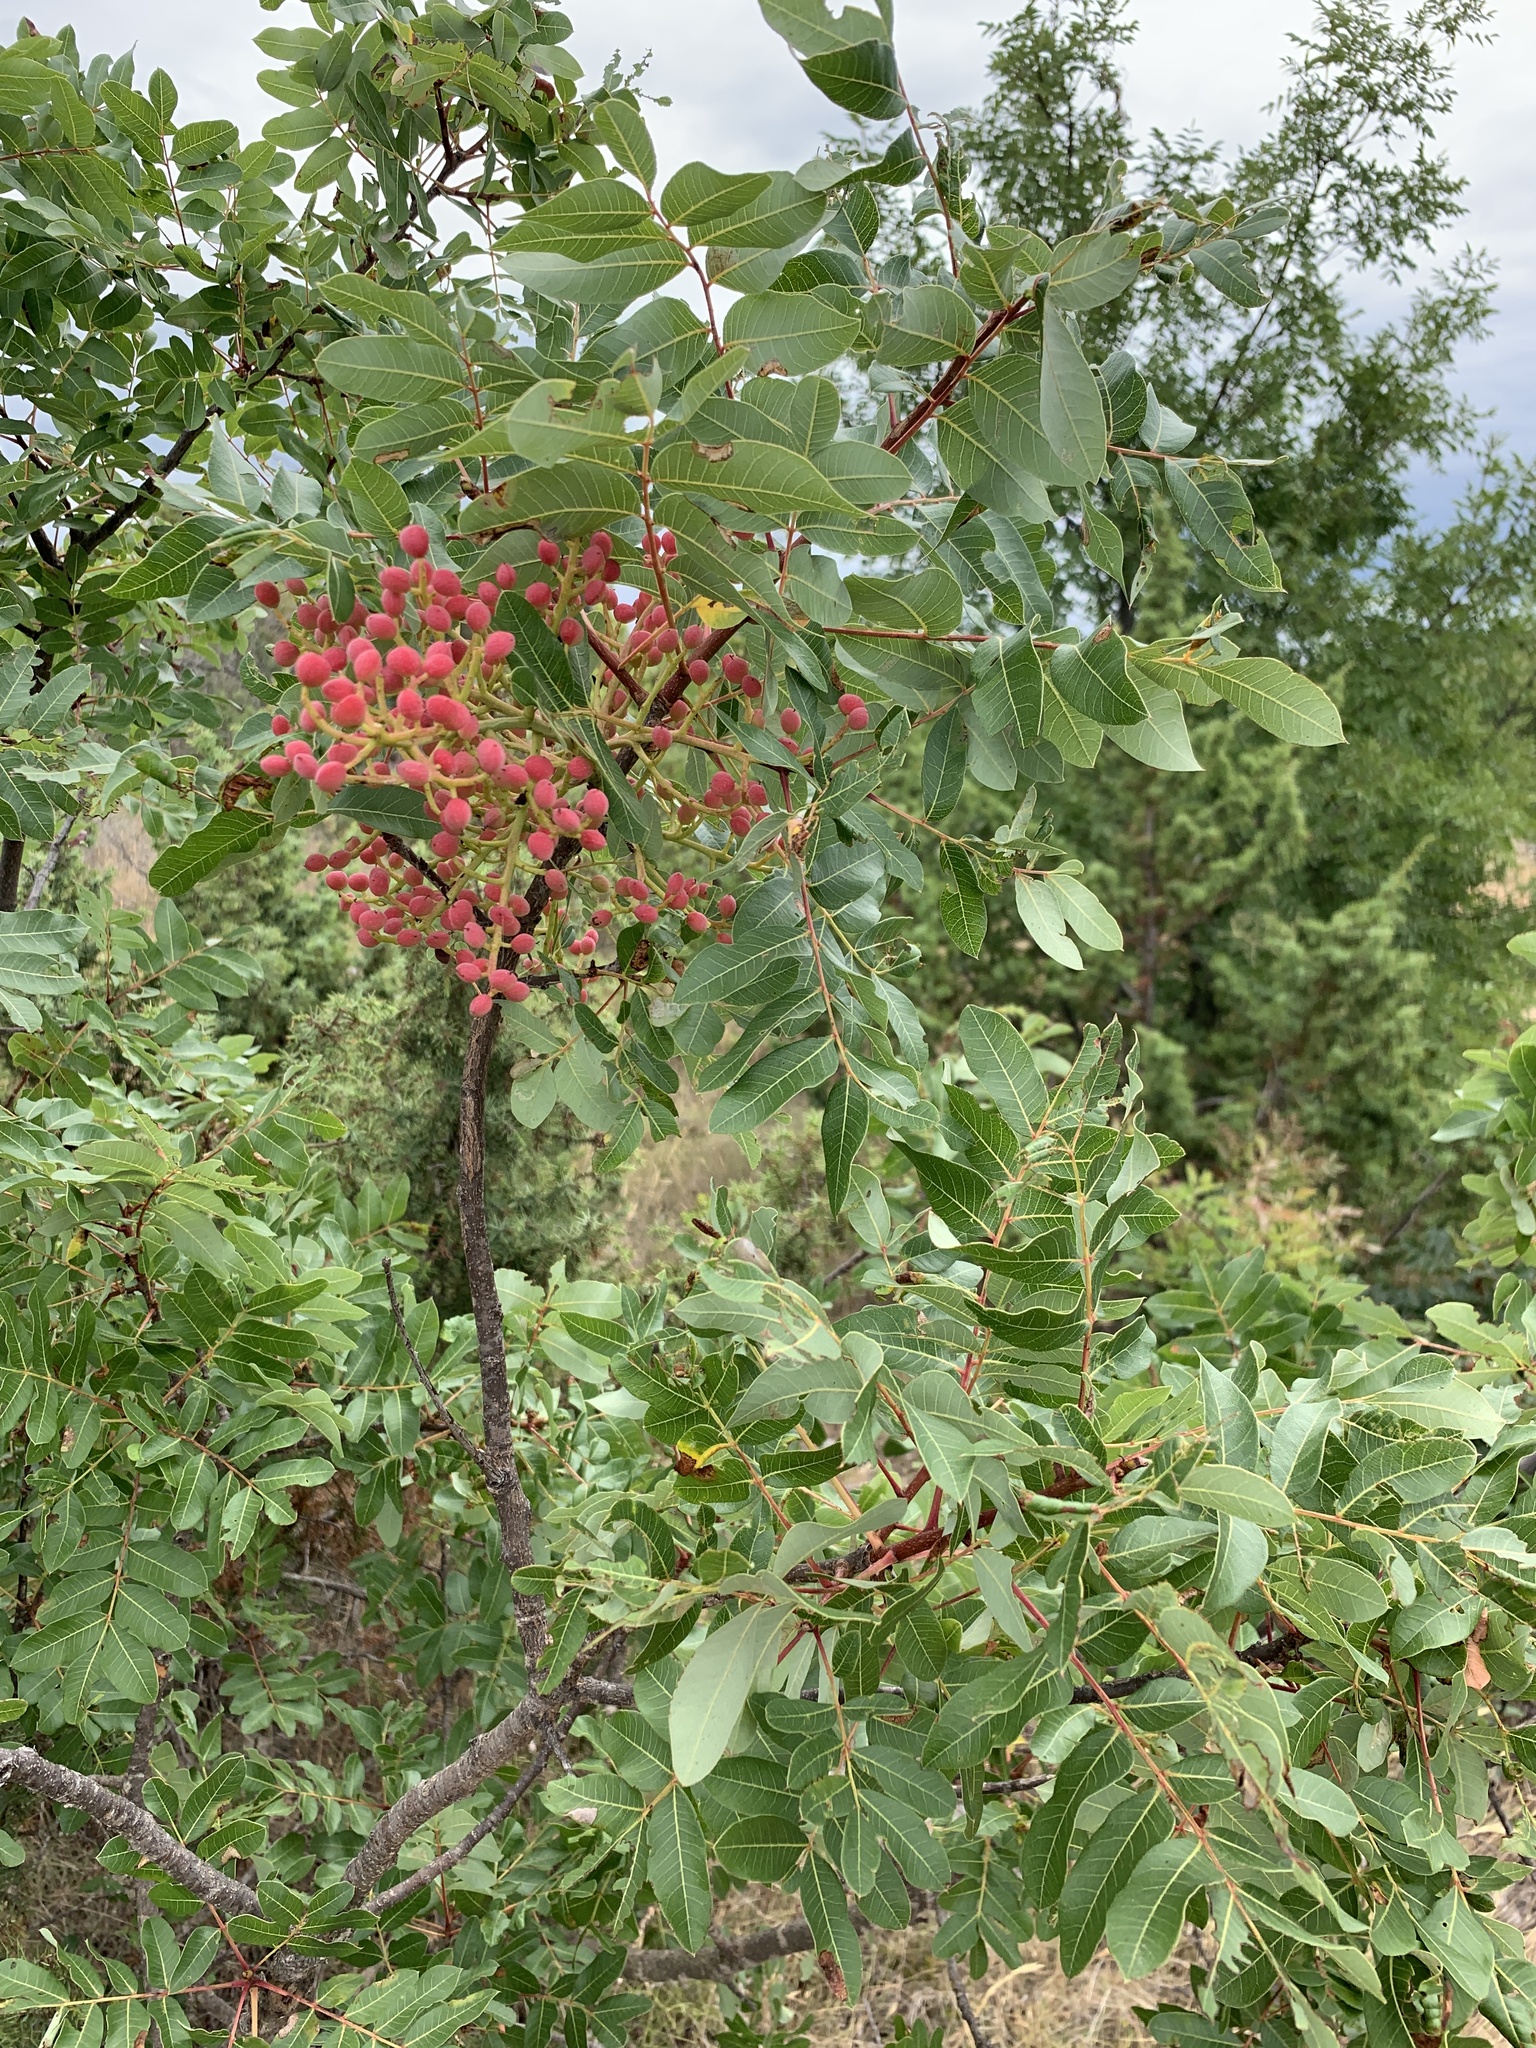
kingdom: Plantae
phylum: Tracheophyta
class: Magnoliopsida
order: Sapindales
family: Anacardiaceae
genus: Pistacia
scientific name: Pistacia terebinthus
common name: Terebinth
